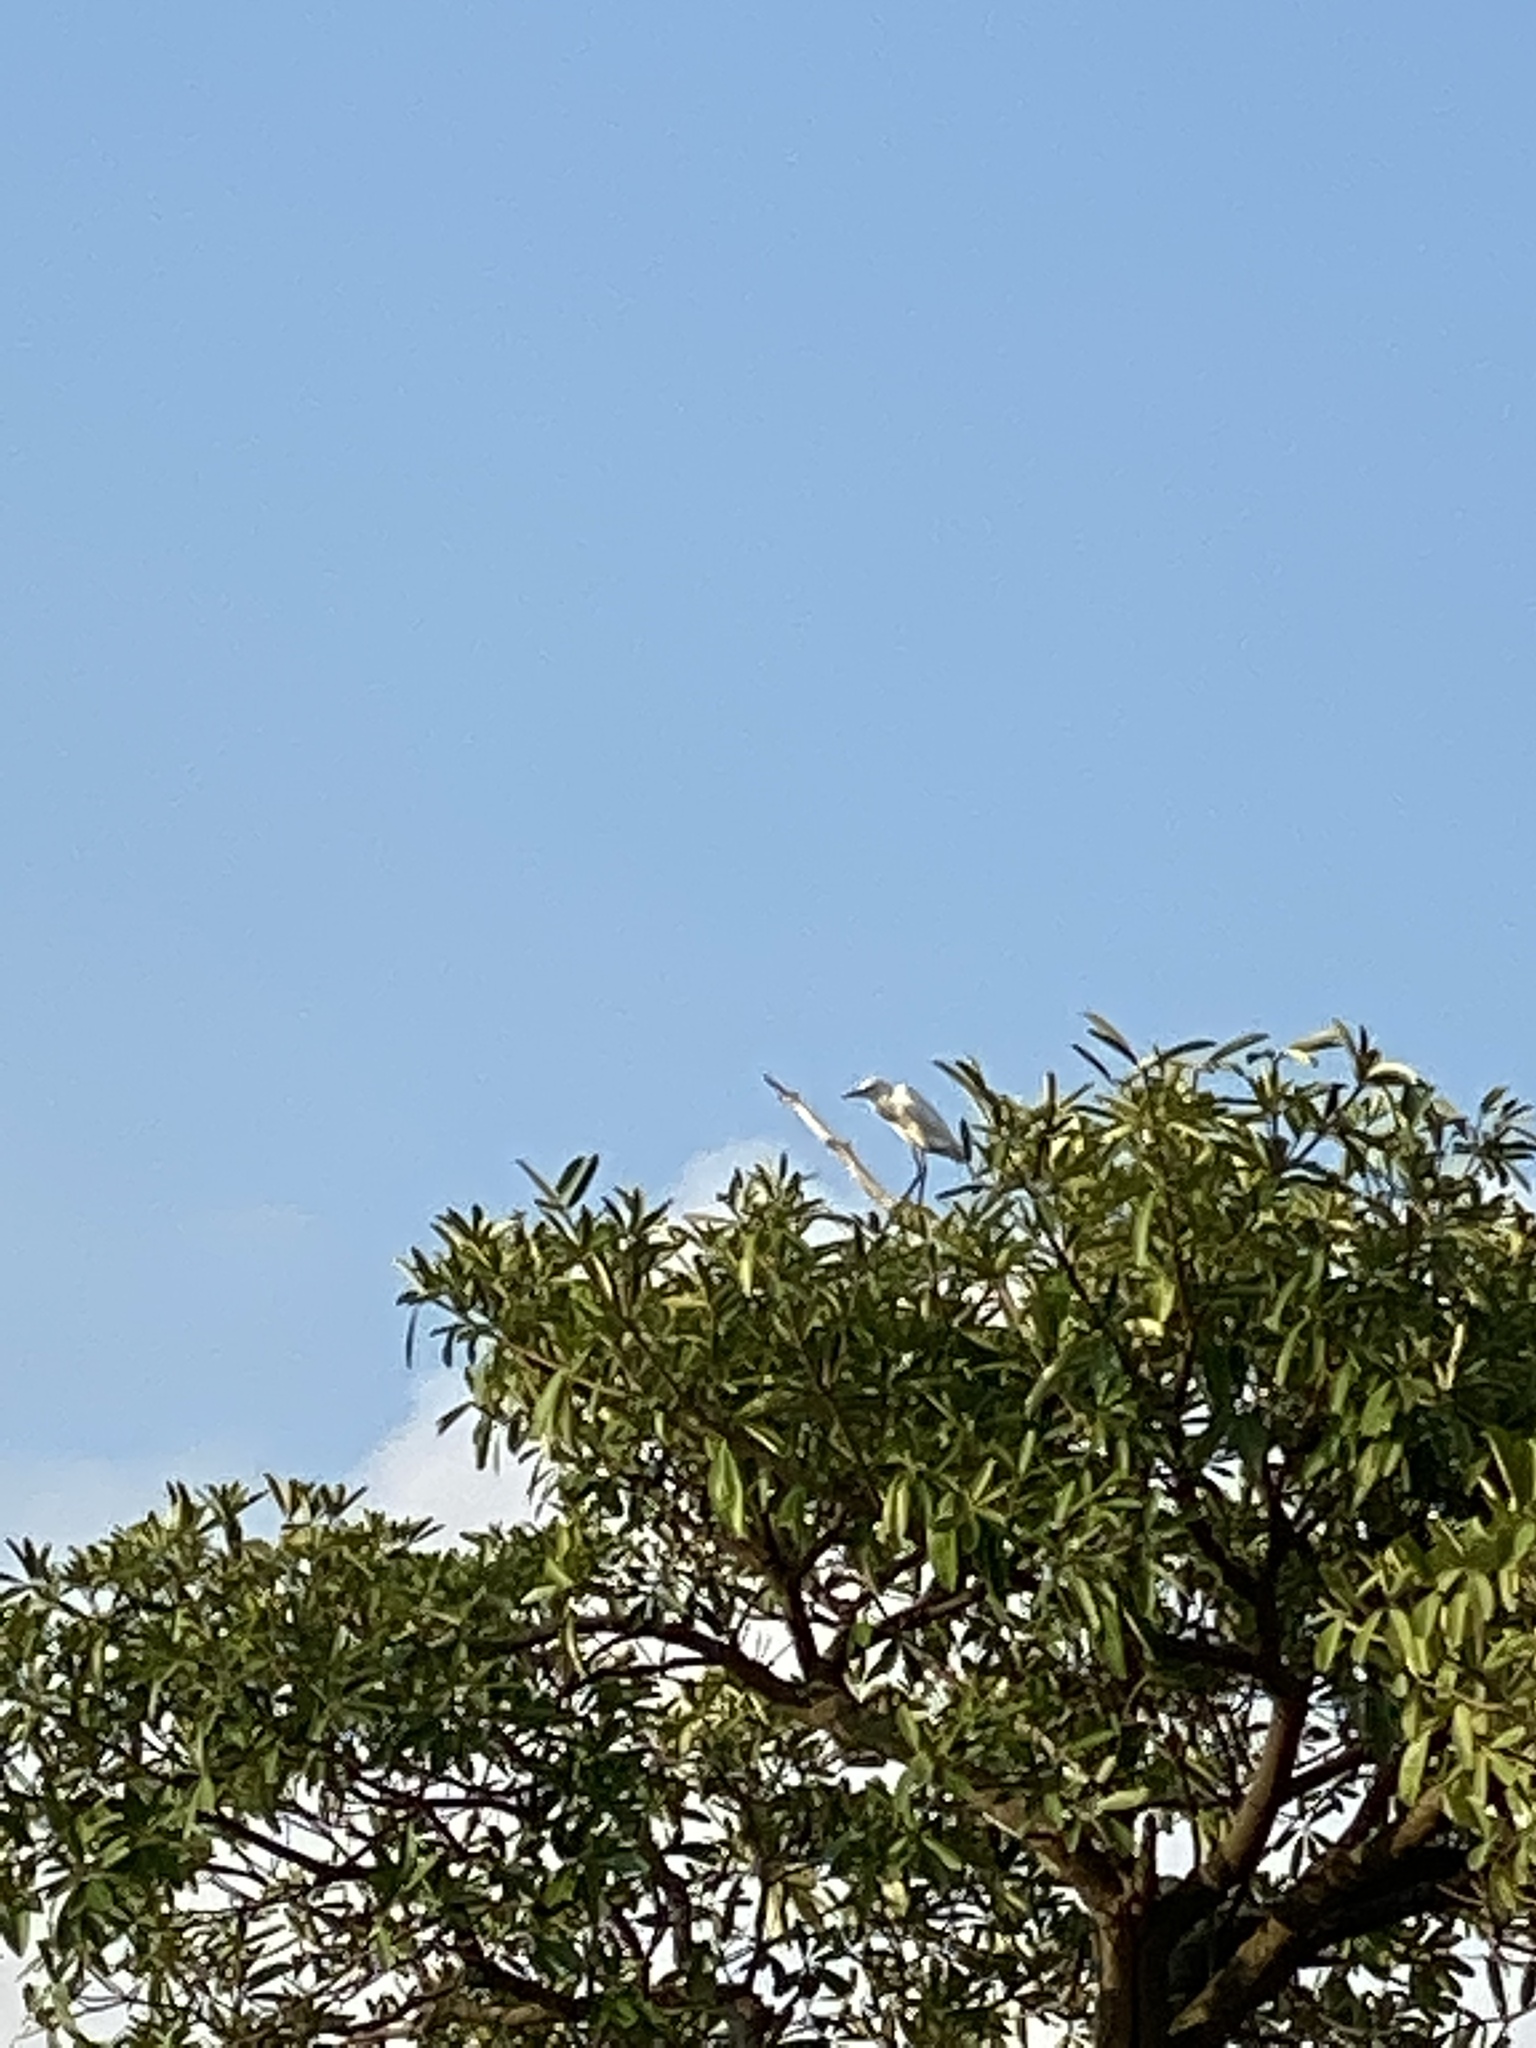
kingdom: Animalia
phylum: Chordata
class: Aves
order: Pelecaniformes
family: Ardeidae
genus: Egretta
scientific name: Egretta garzetta
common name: Little egret
